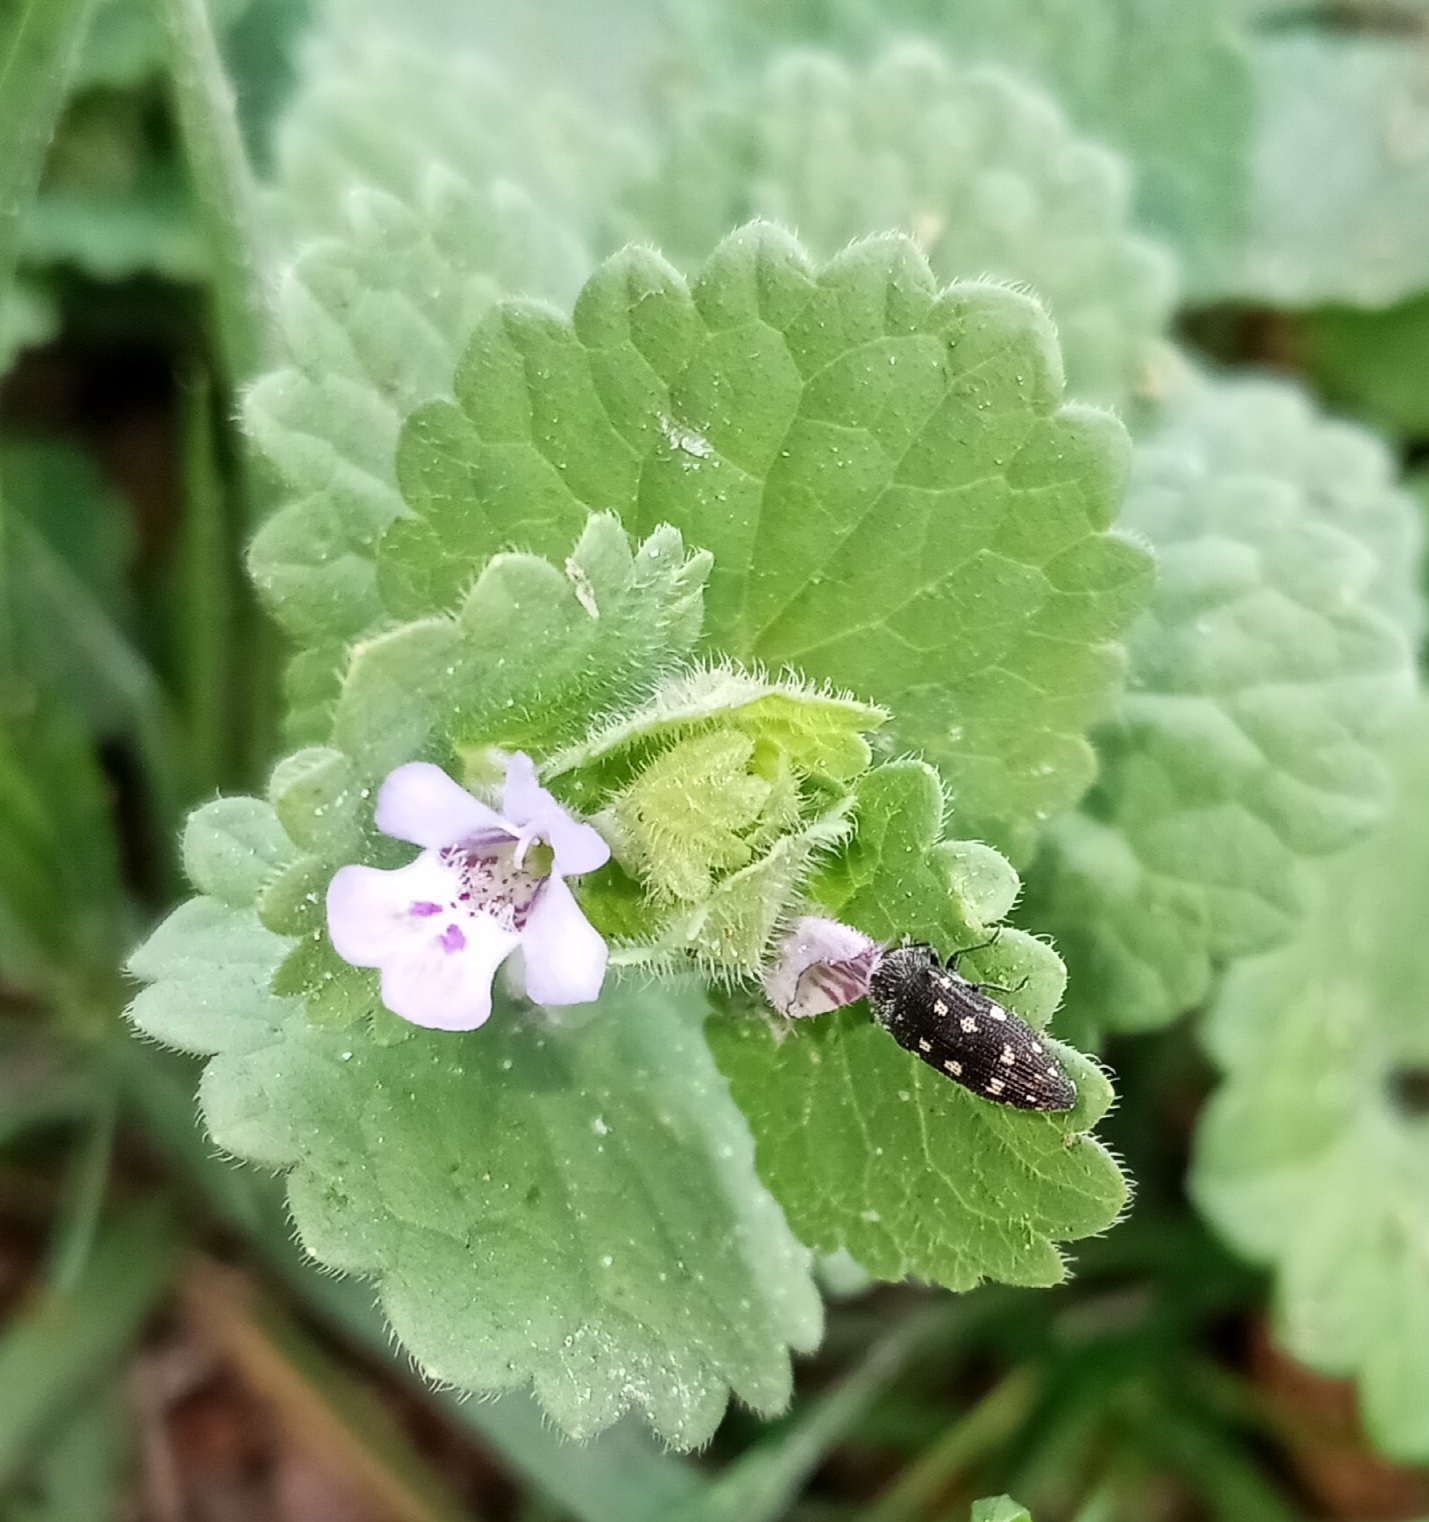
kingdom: Plantae
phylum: Tracheophyta
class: Magnoliopsida
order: Lamiales
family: Lamiaceae
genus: Glechoma
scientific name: Glechoma hederacea
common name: Ground ivy
